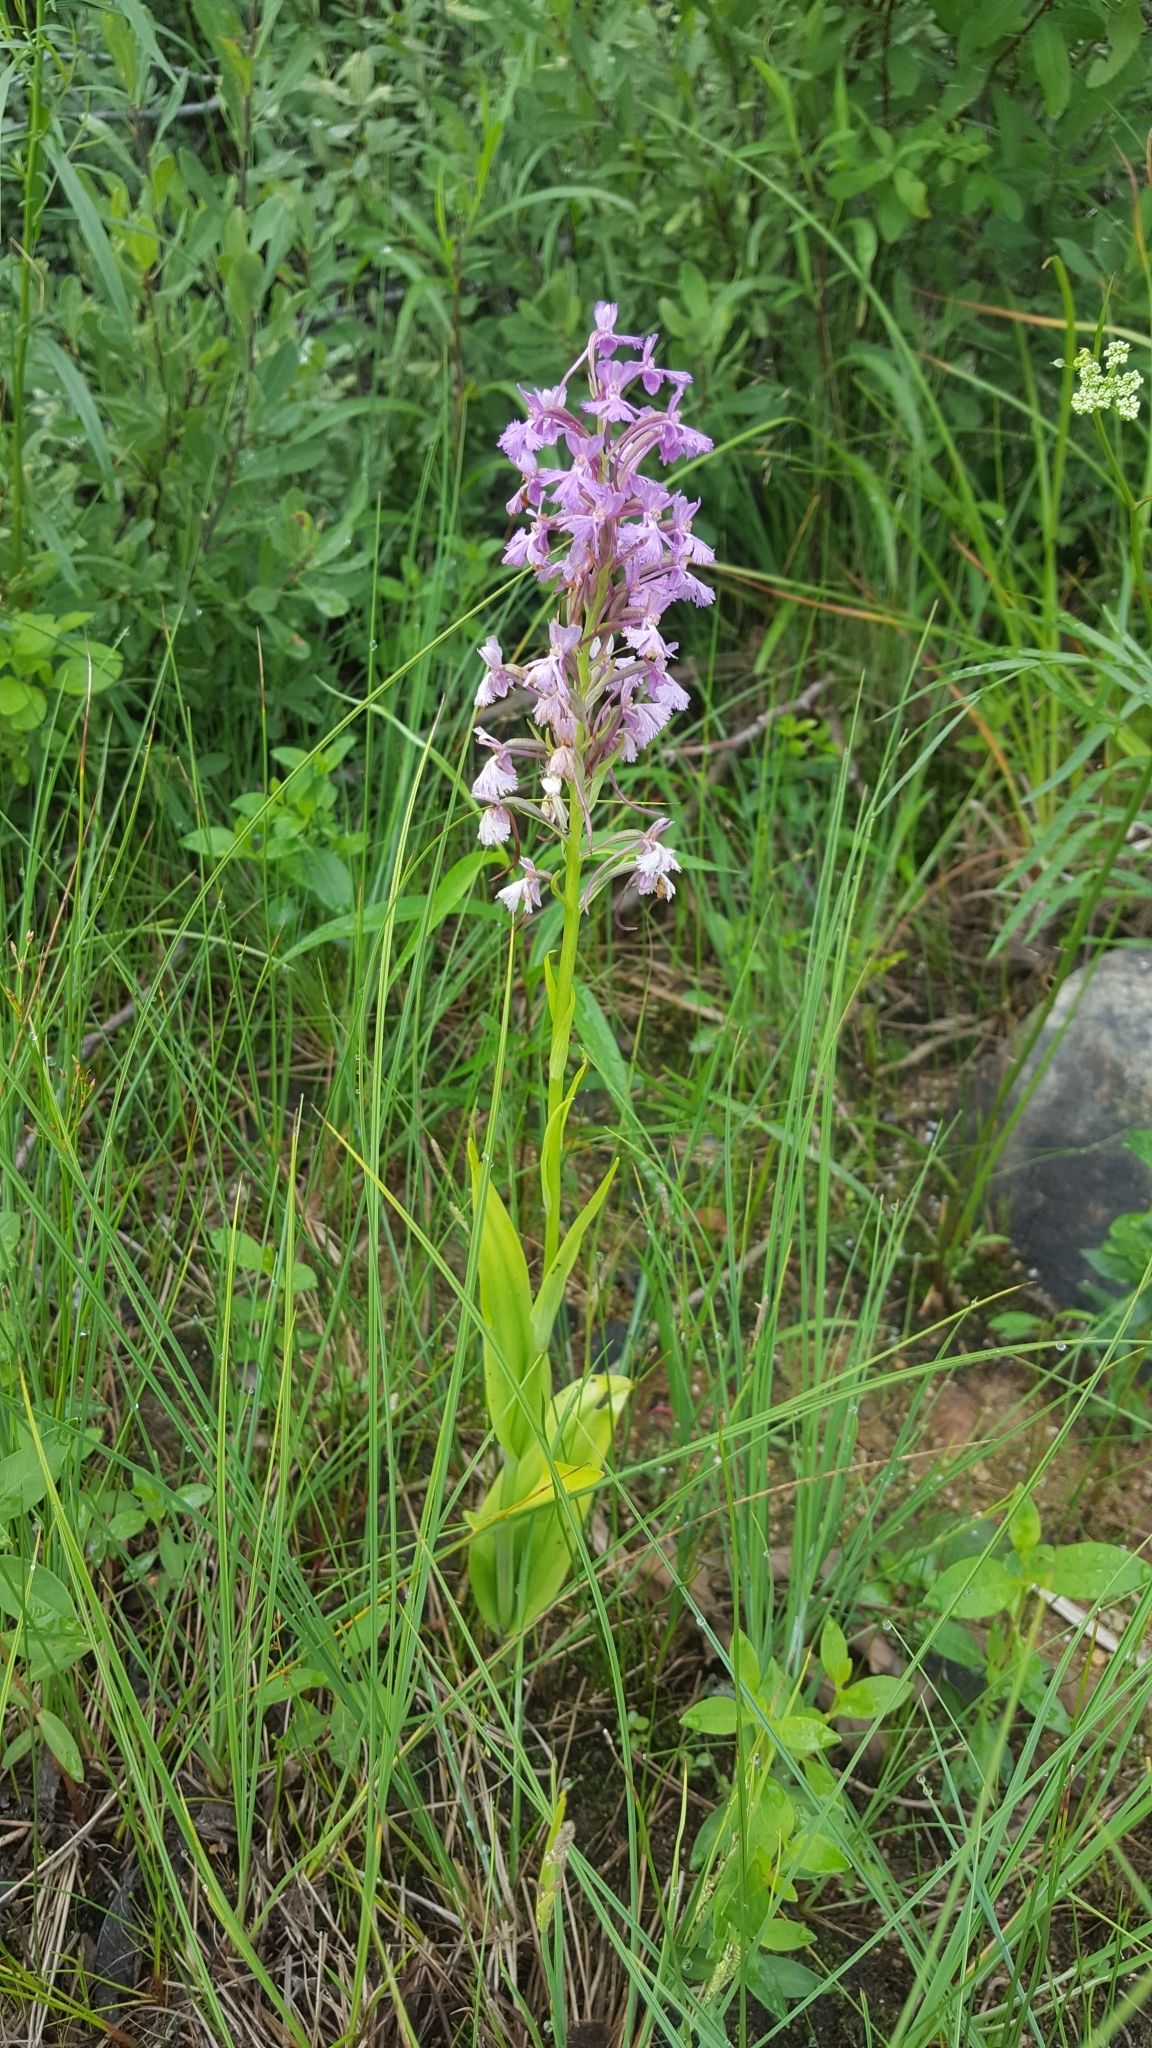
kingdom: Plantae
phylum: Tracheophyta
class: Liliopsida
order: Asparagales
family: Orchidaceae
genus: Platanthera
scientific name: Platanthera psycodes
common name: Lesser purple fringed orchid
